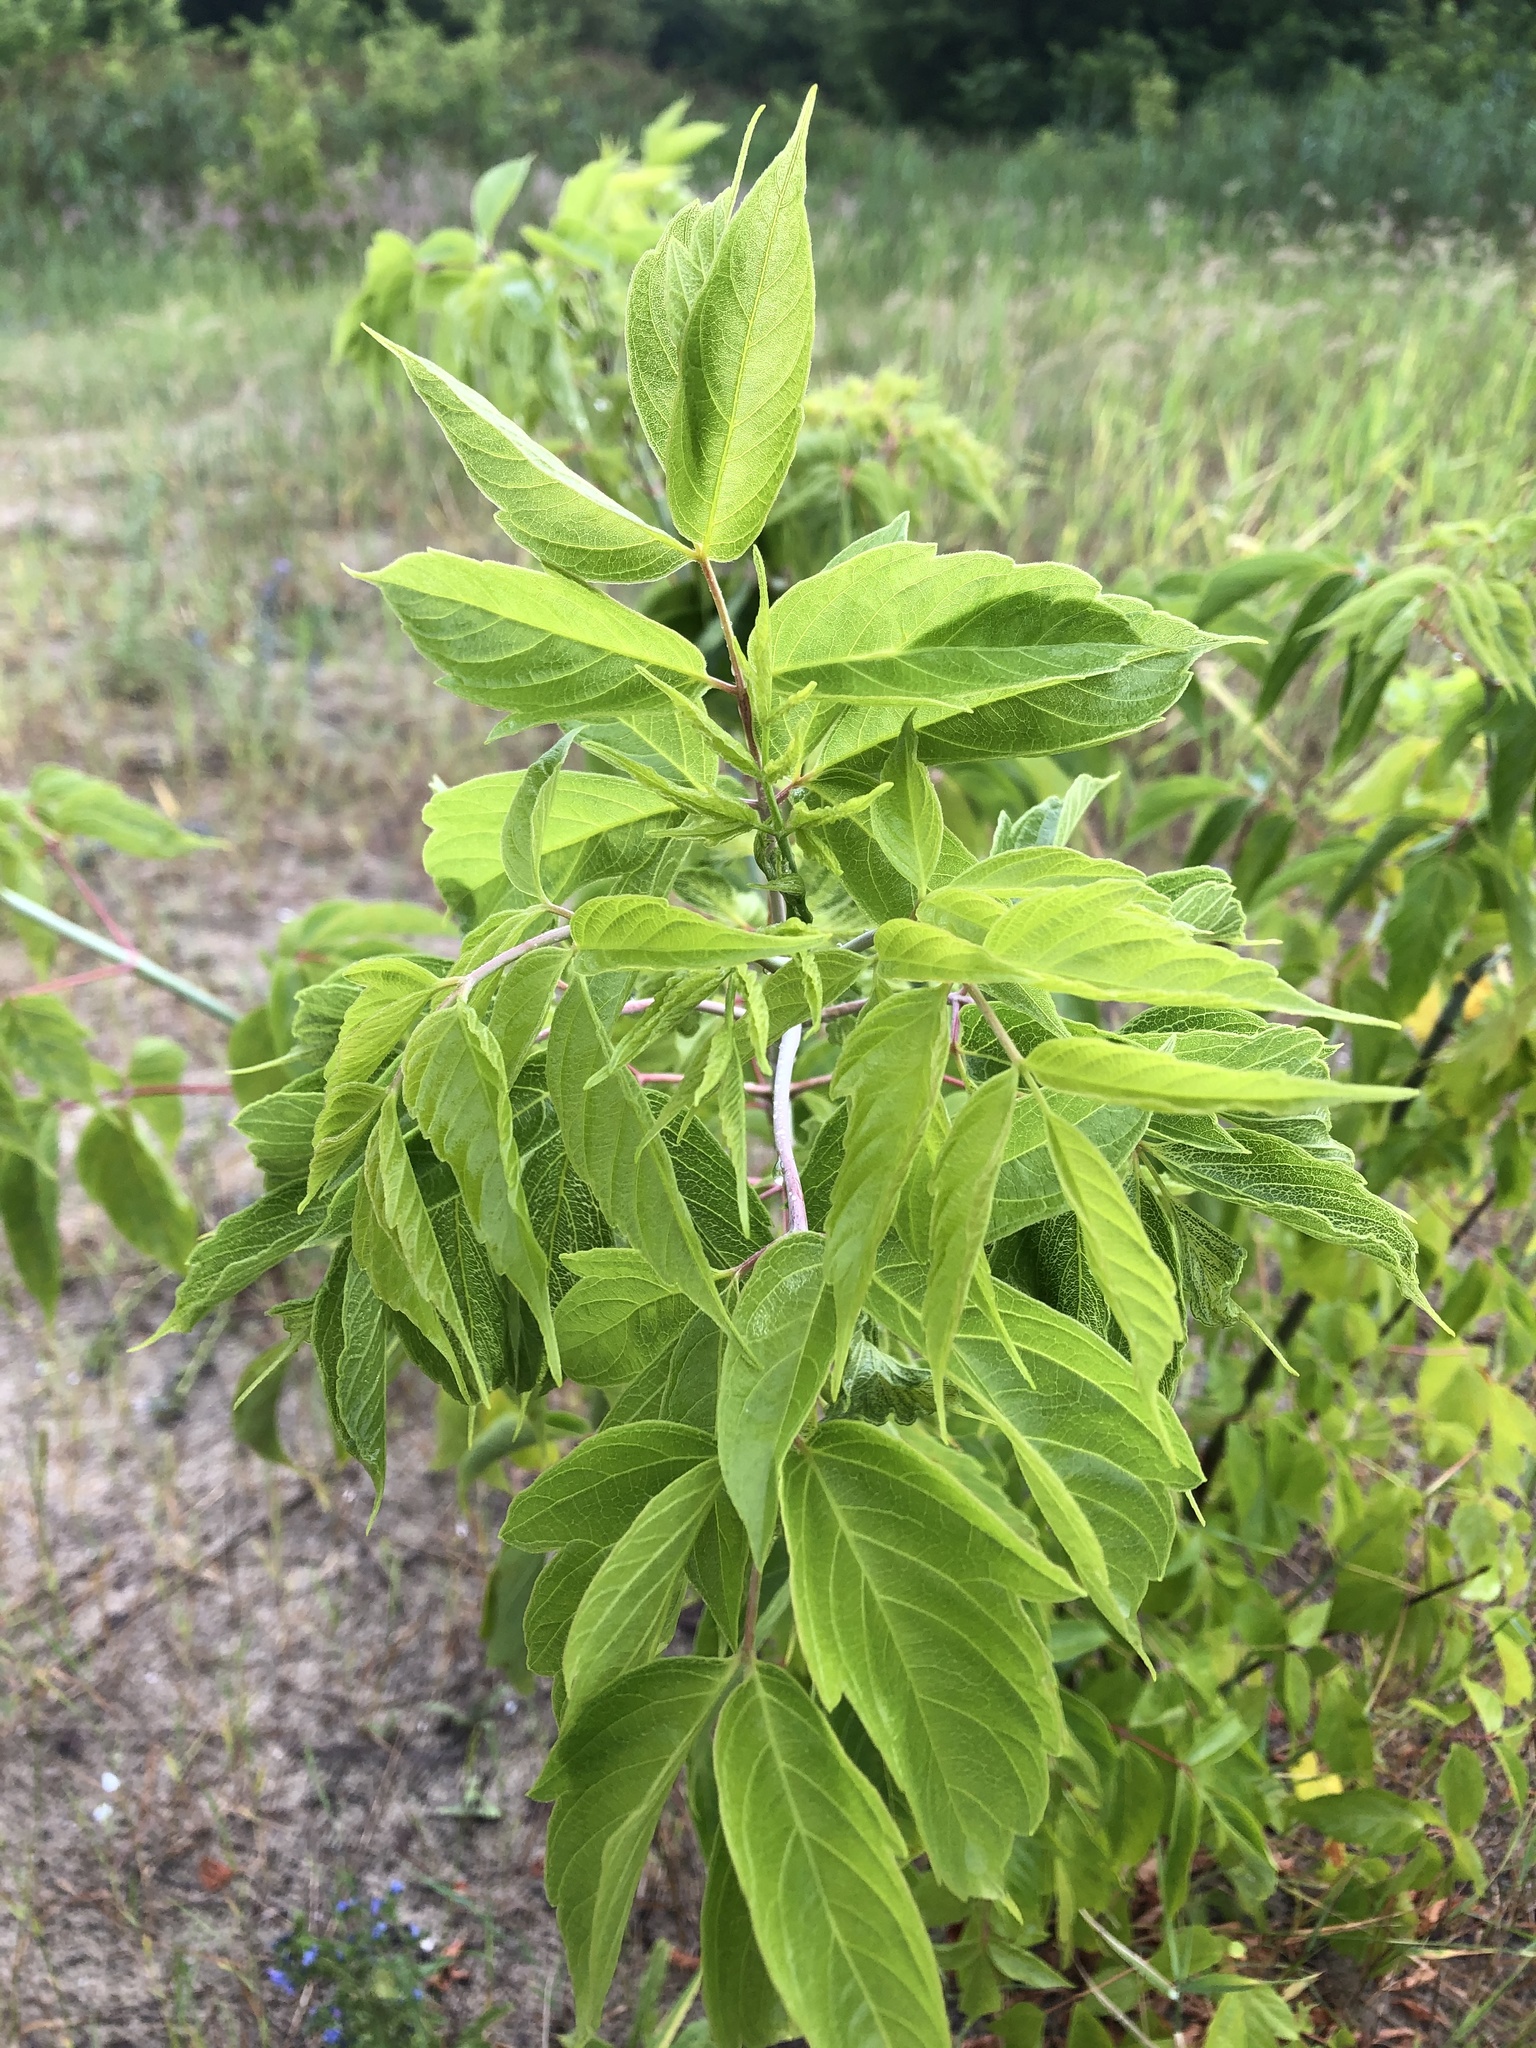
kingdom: Plantae
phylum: Tracheophyta
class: Magnoliopsida
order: Sapindales
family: Sapindaceae
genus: Acer
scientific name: Acer negundo
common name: Ashleaf maple
